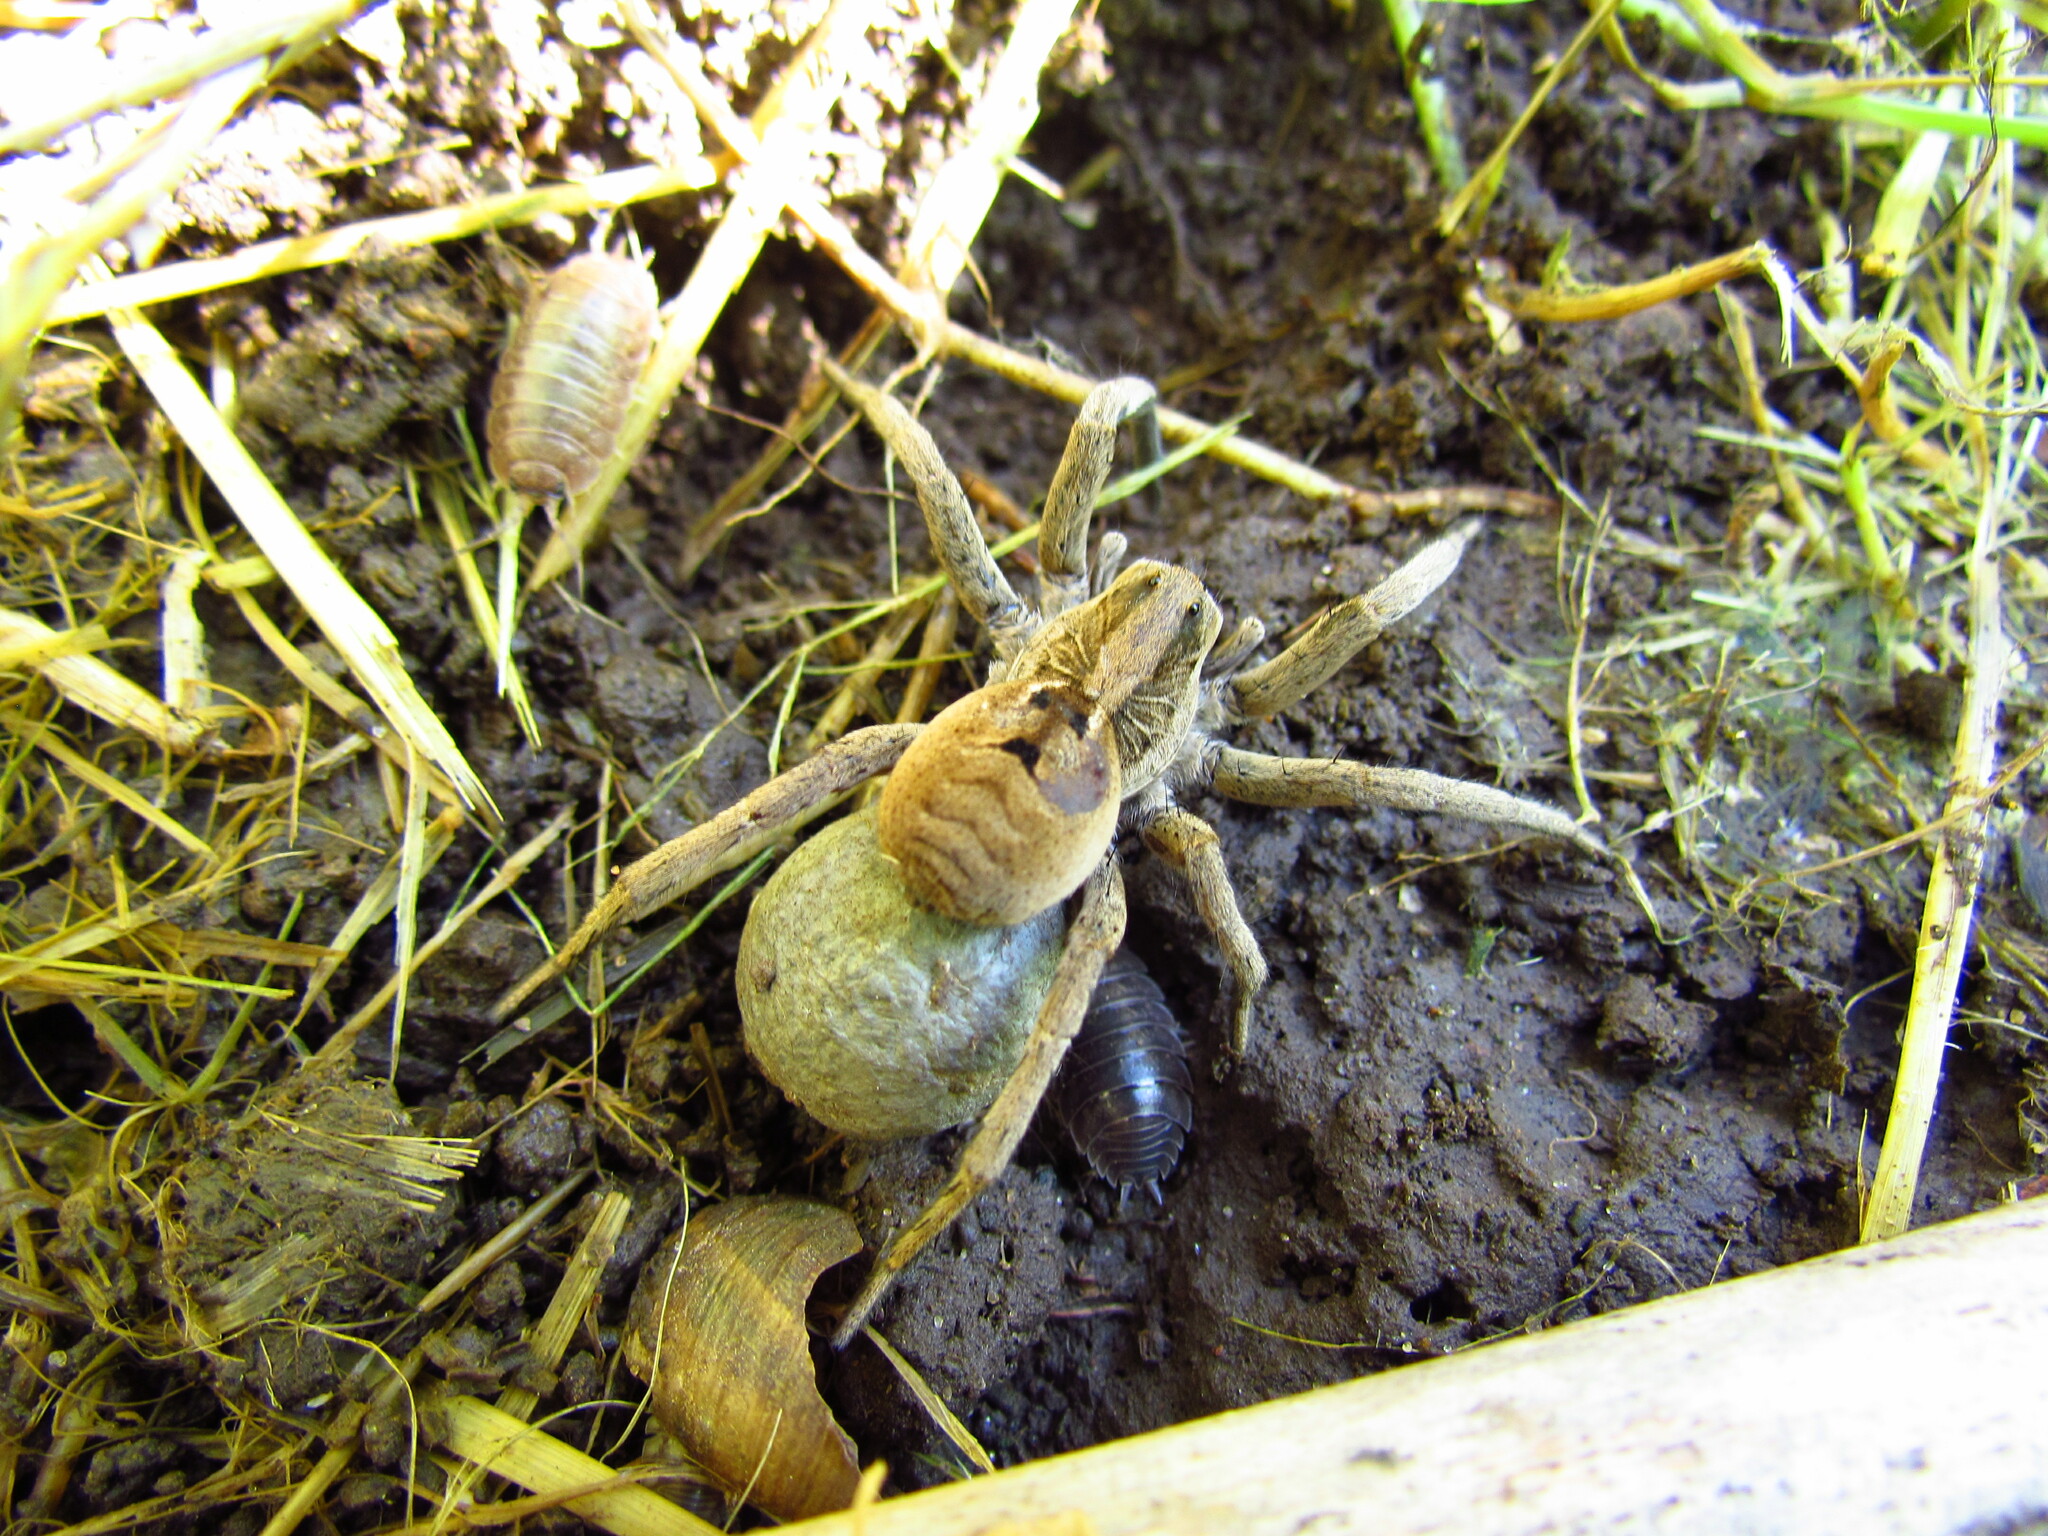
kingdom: Animalia
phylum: Arthropoda
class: Arachnida
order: Araneae
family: Lycosidae
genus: Lycosa
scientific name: Lycosa erythrognatha
